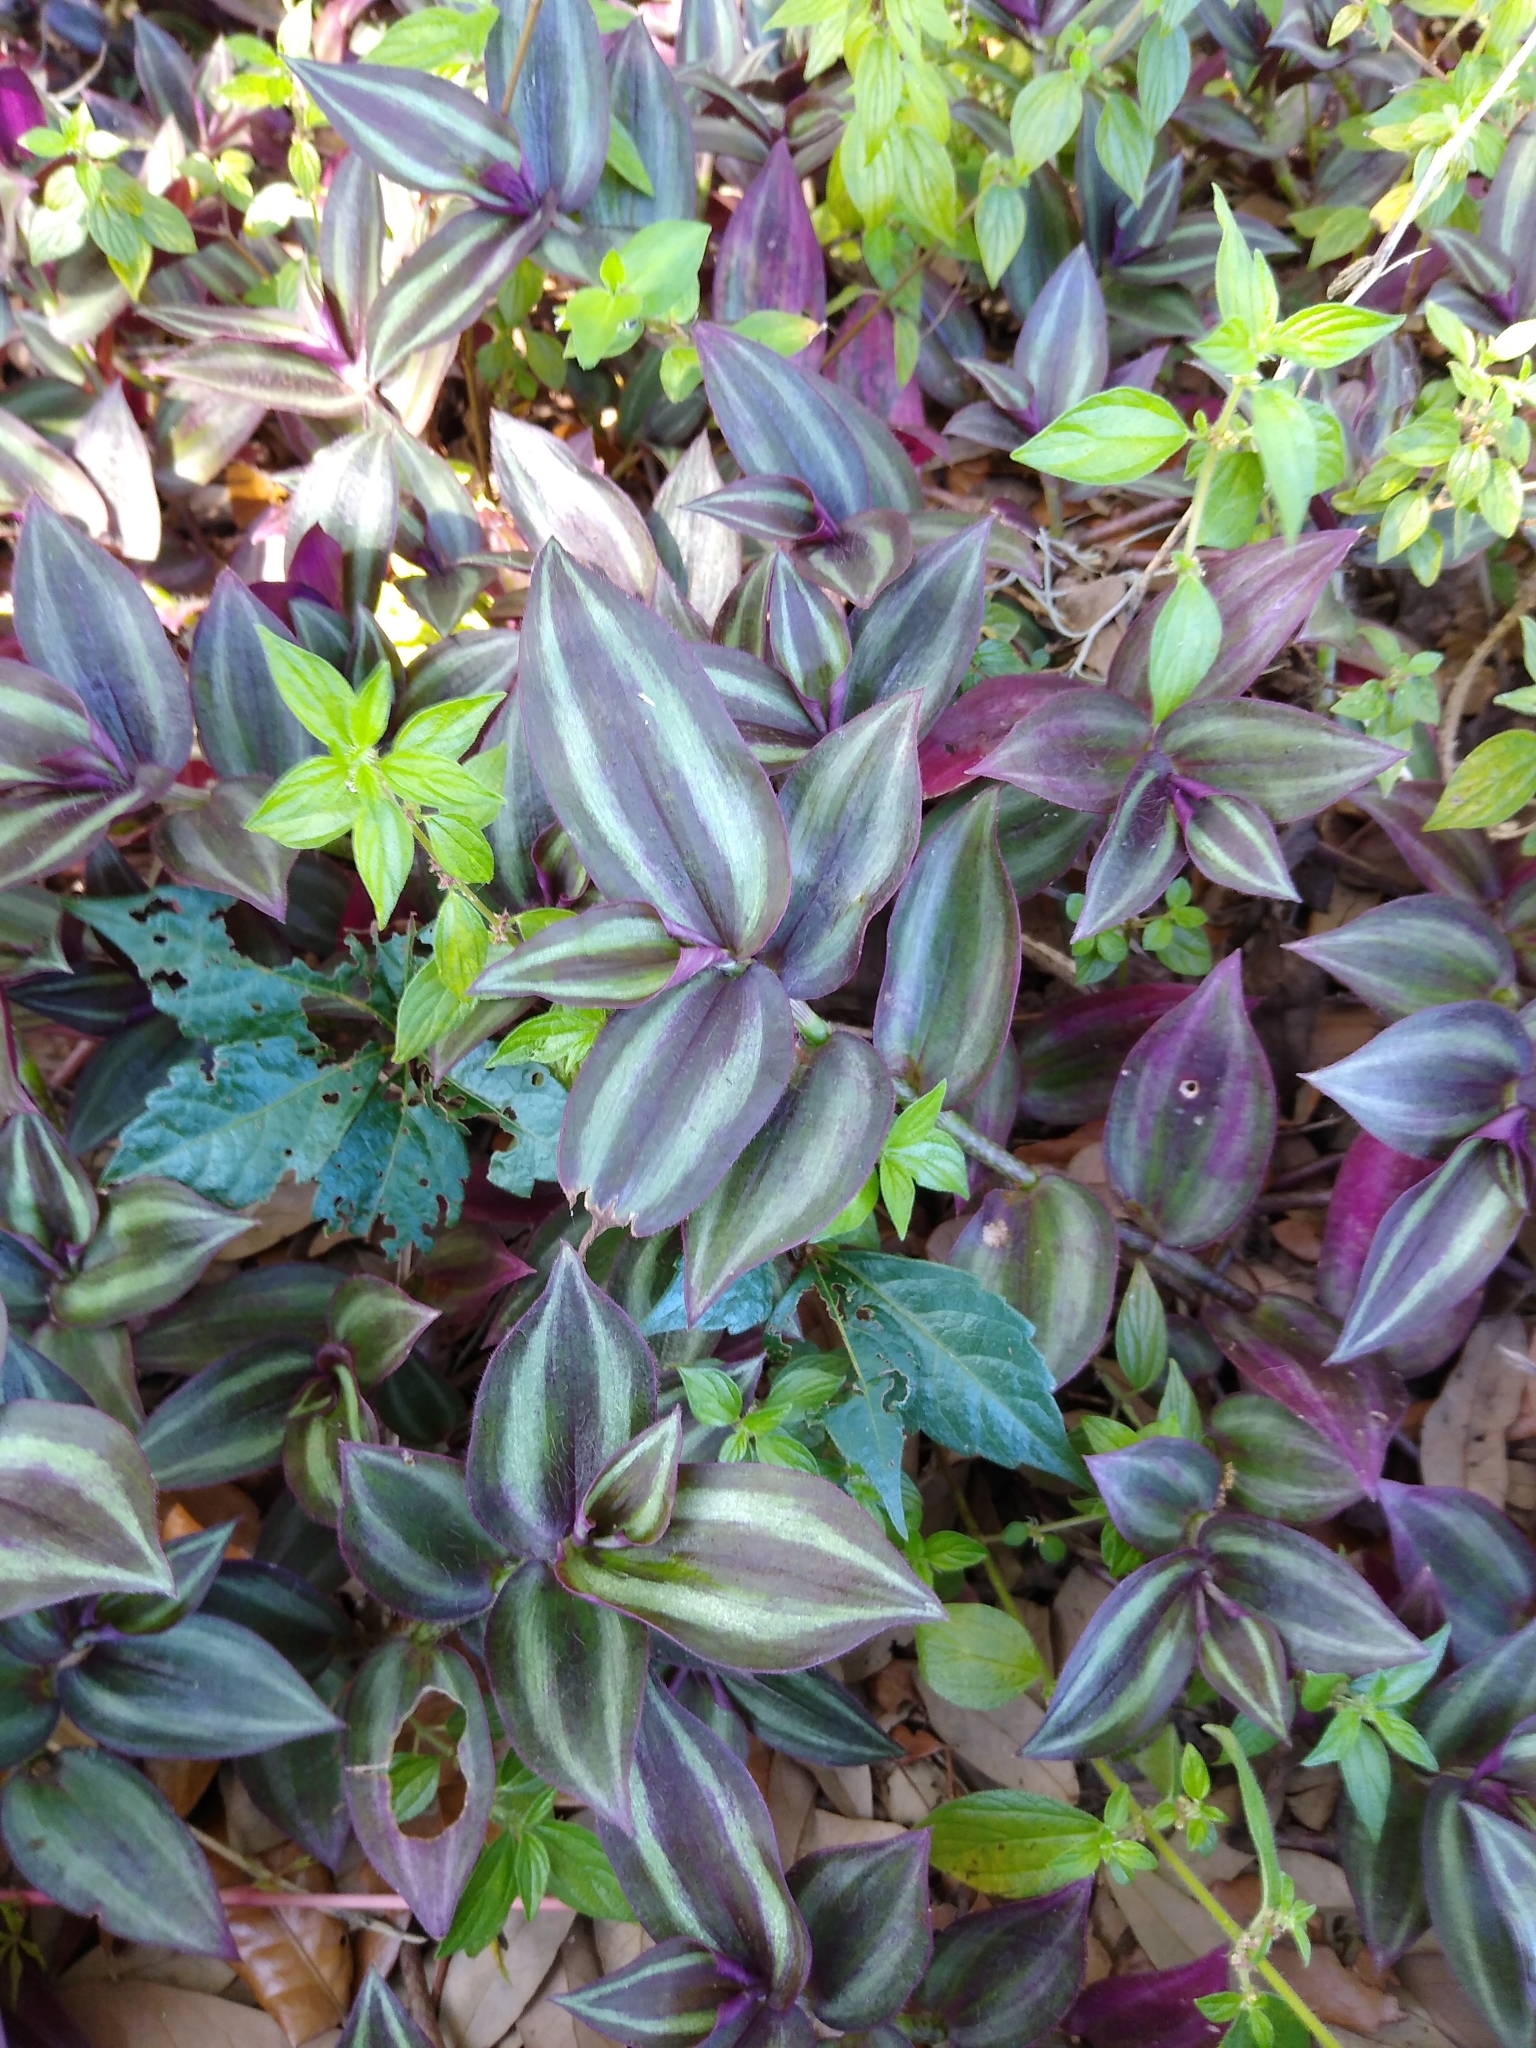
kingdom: Plantae
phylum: Tracheophyta
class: Liliopsida
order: Commelinales
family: Commelinaceae
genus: Tradescantia
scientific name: Tradescantia zebrina
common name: Inchplant
